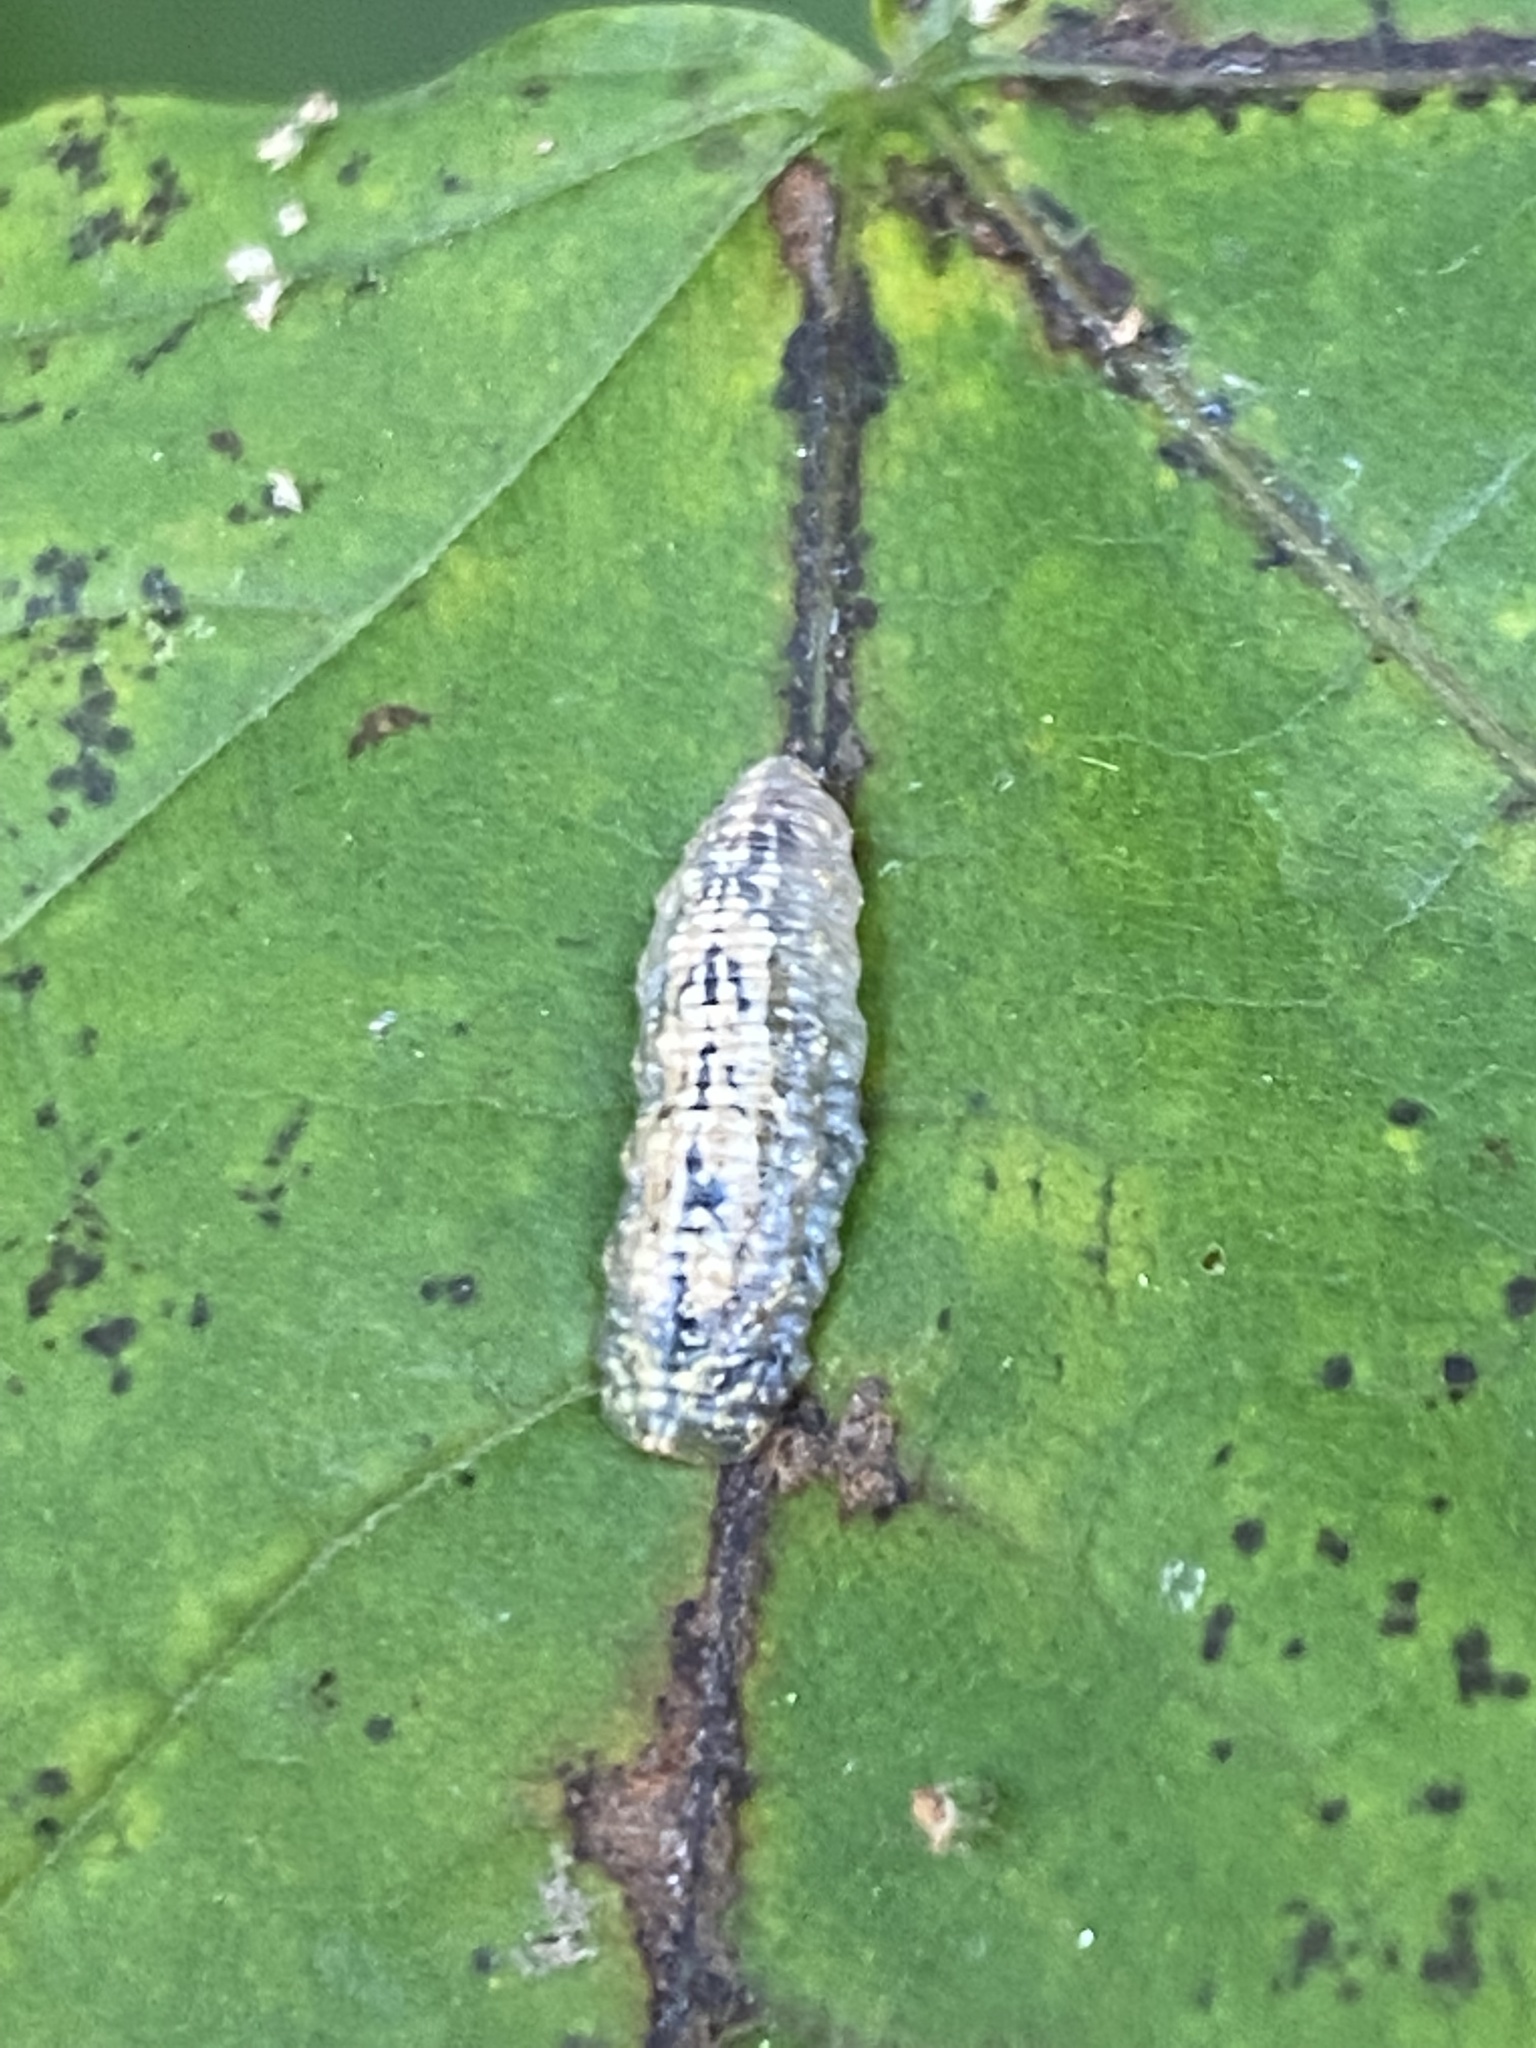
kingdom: Animalia
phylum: Arthropoda
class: Insecta
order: Diptera
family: Syrphidae
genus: Syrphus
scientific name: Syrphus
